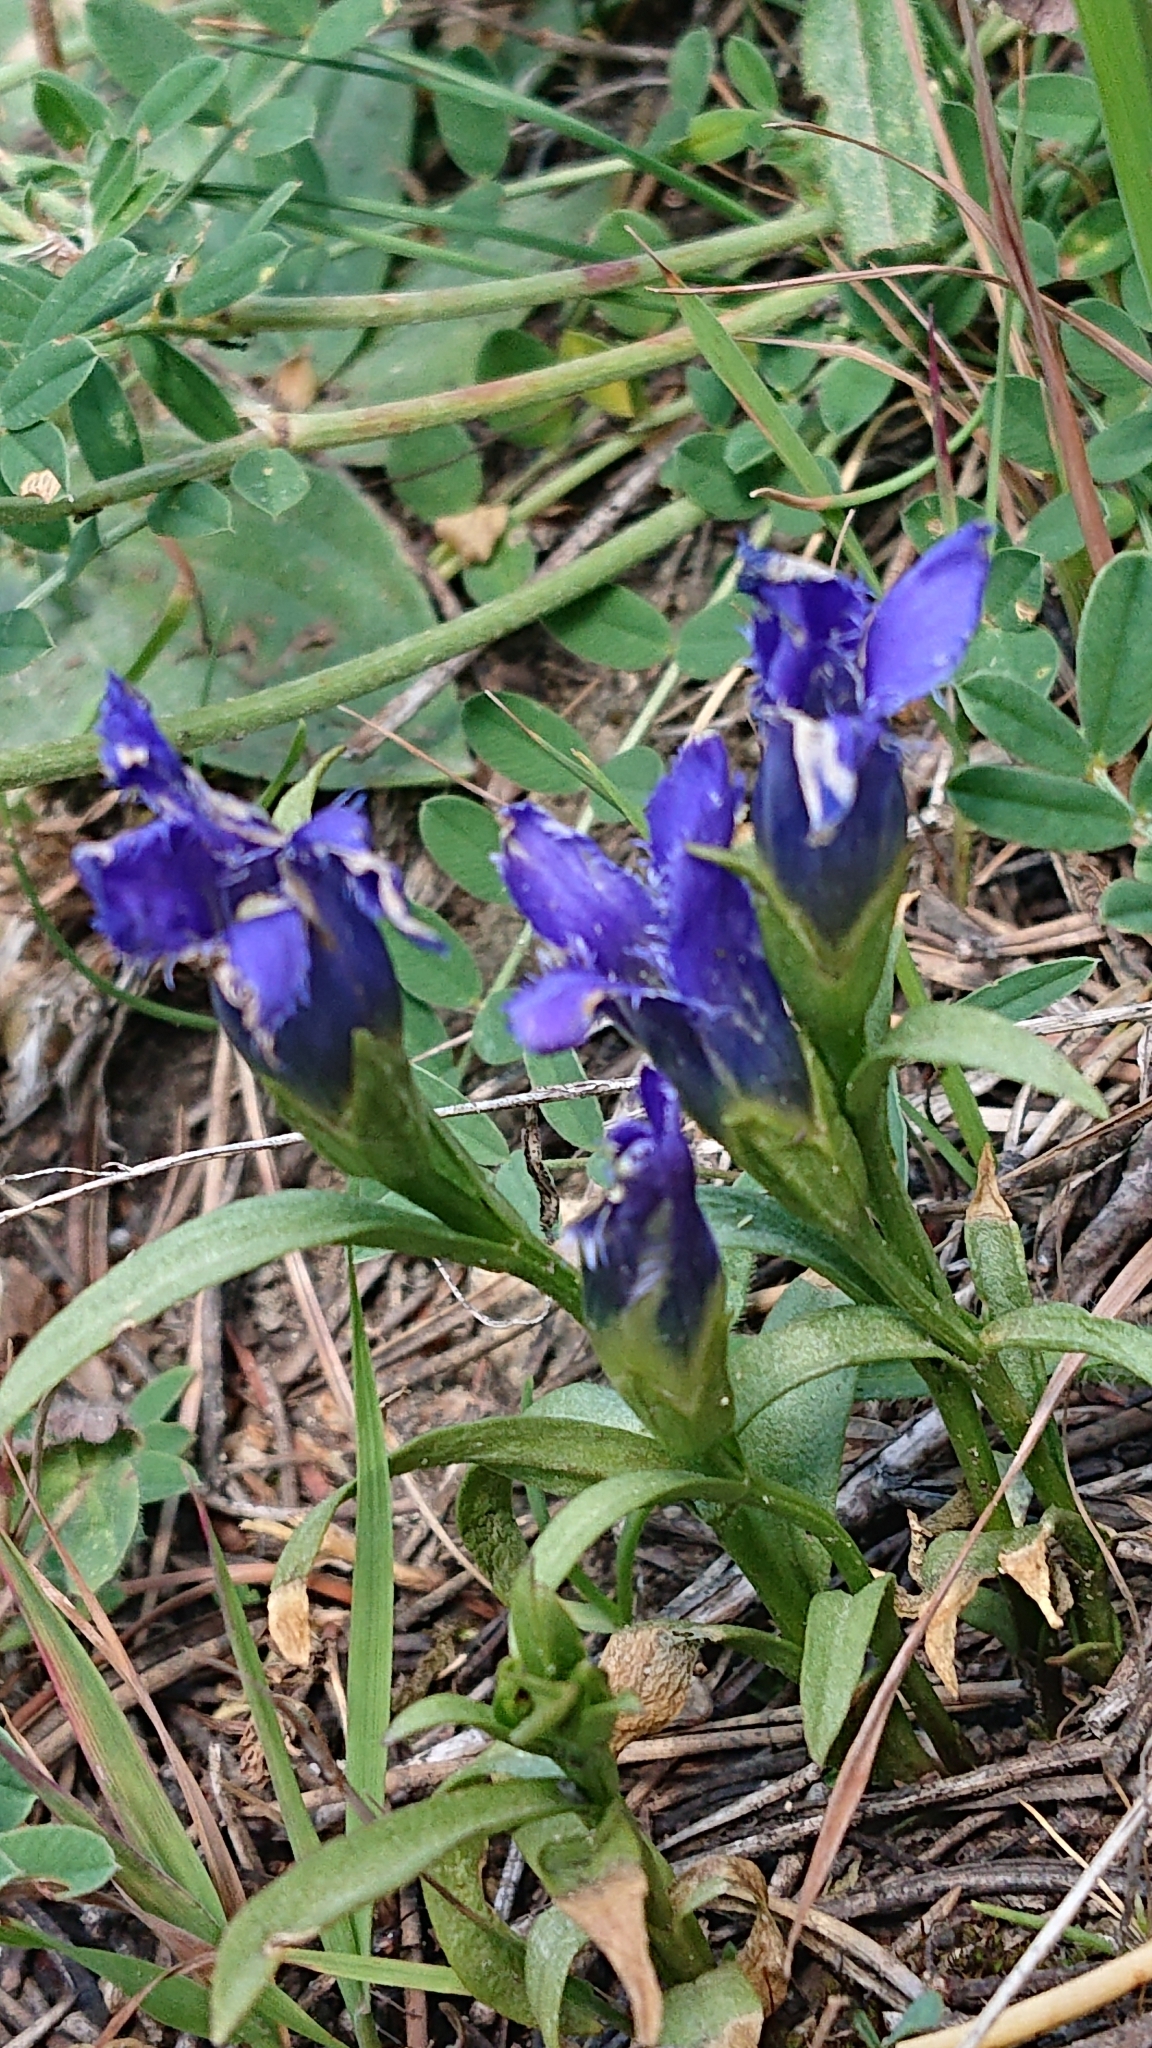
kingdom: Plantae
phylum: Tracheophyta
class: Magnoliopsida
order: Gentianales
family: Gentianaceae
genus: Gentianopsis
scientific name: Gentianopsis ciliata
